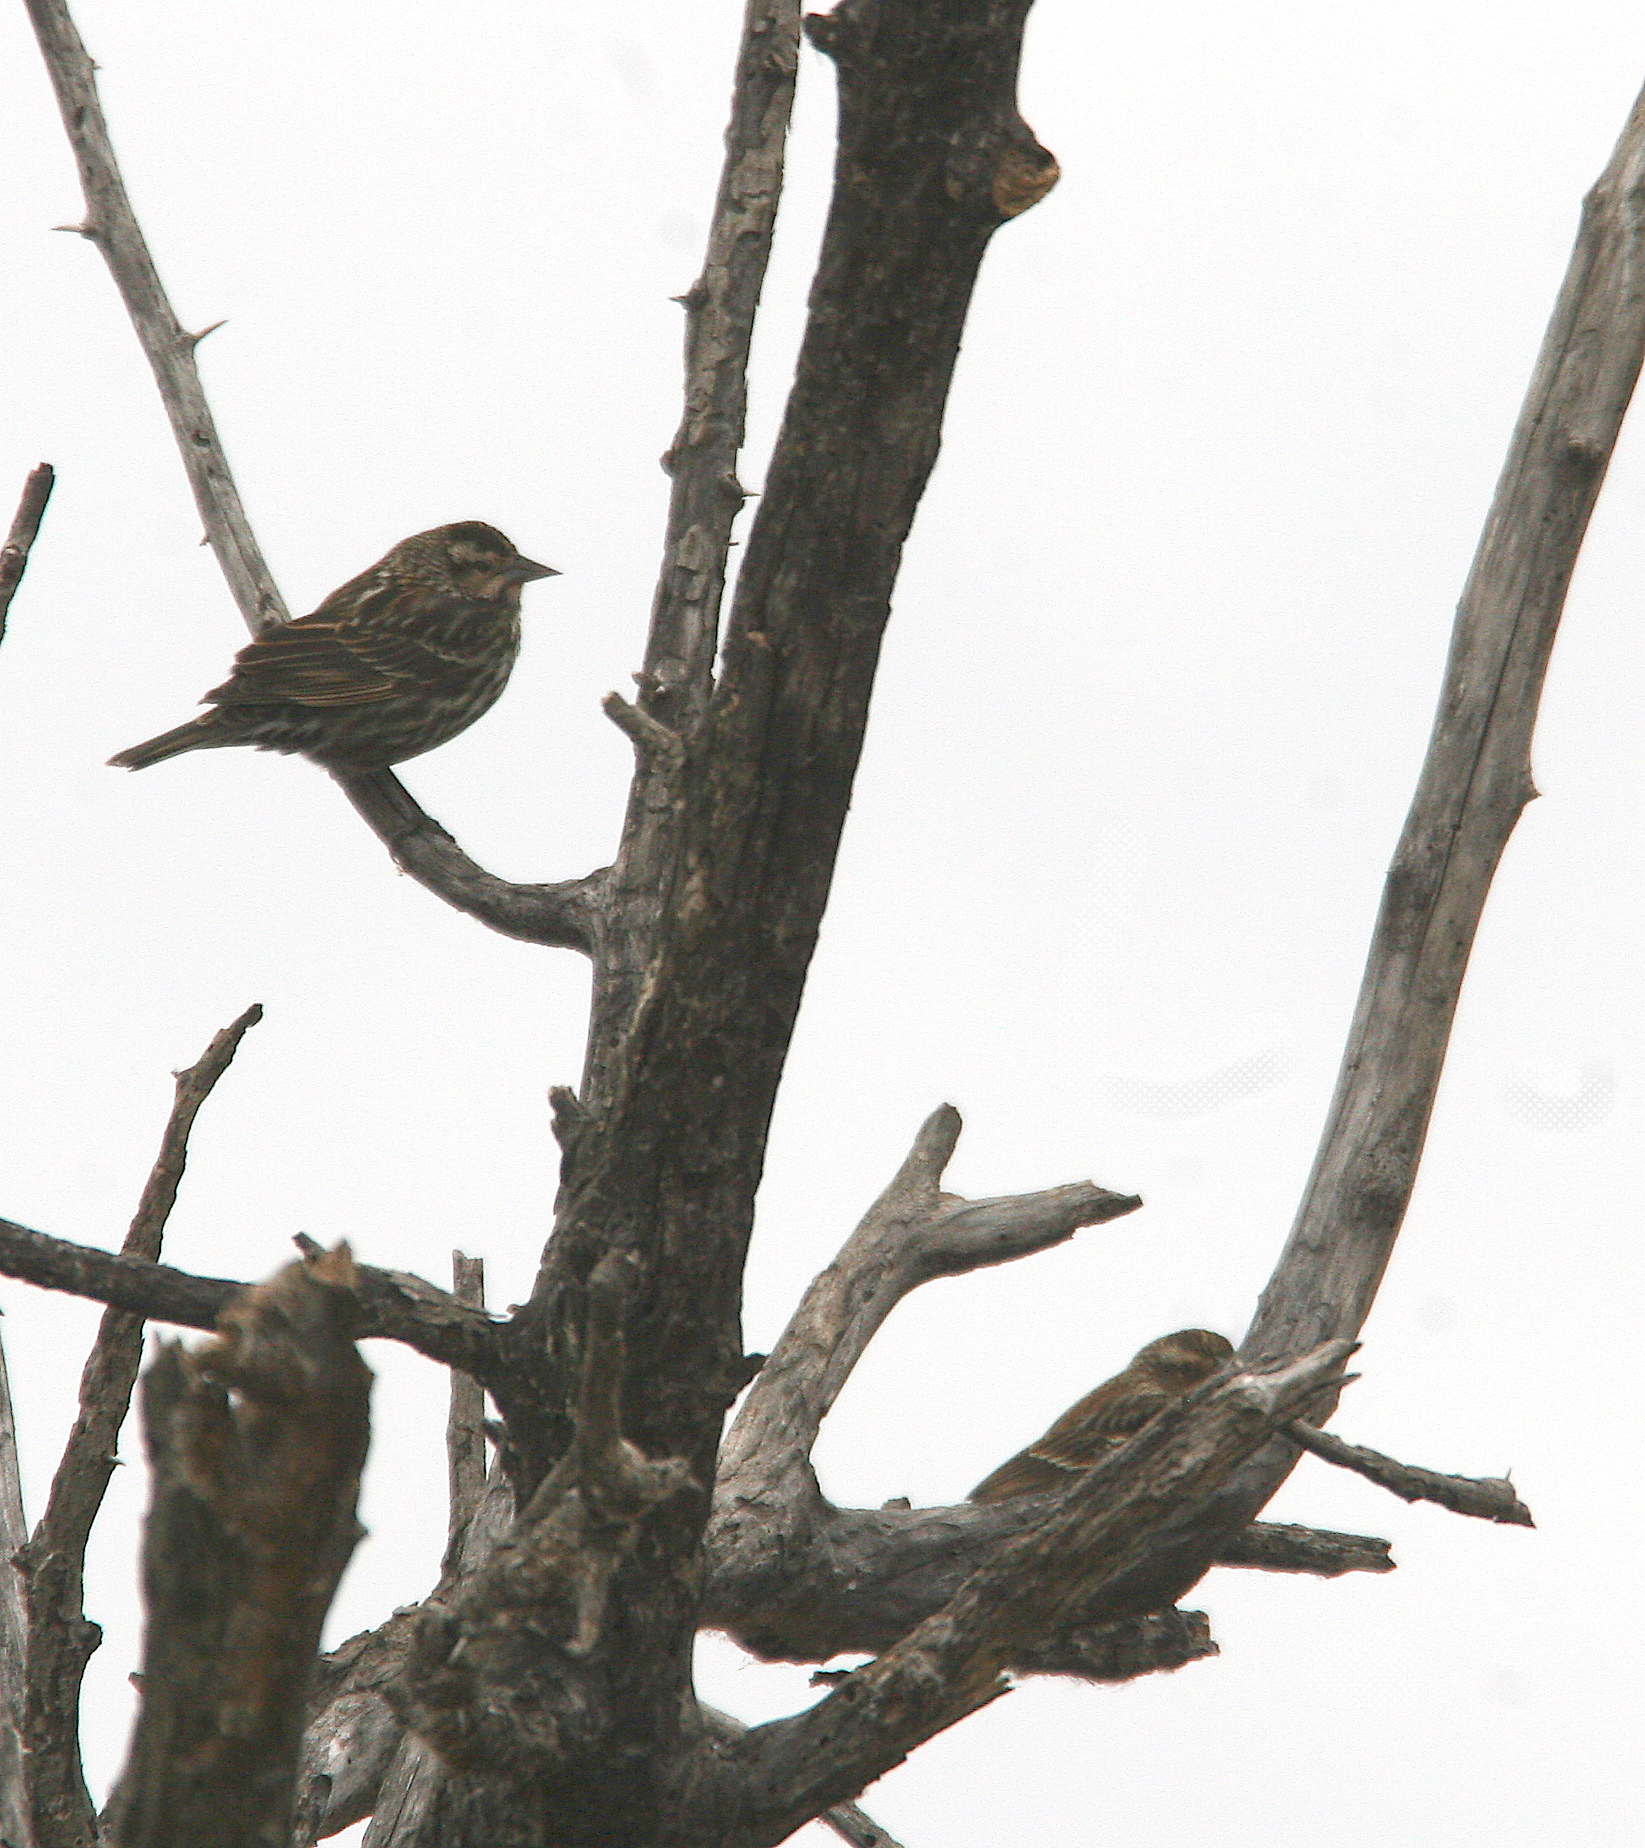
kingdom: Animalia
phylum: Chordata
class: Aves
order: Passeriformes
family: Icteridae
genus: Agelaius
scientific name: Agelaius phoeniceus
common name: Red-winged blackbird
